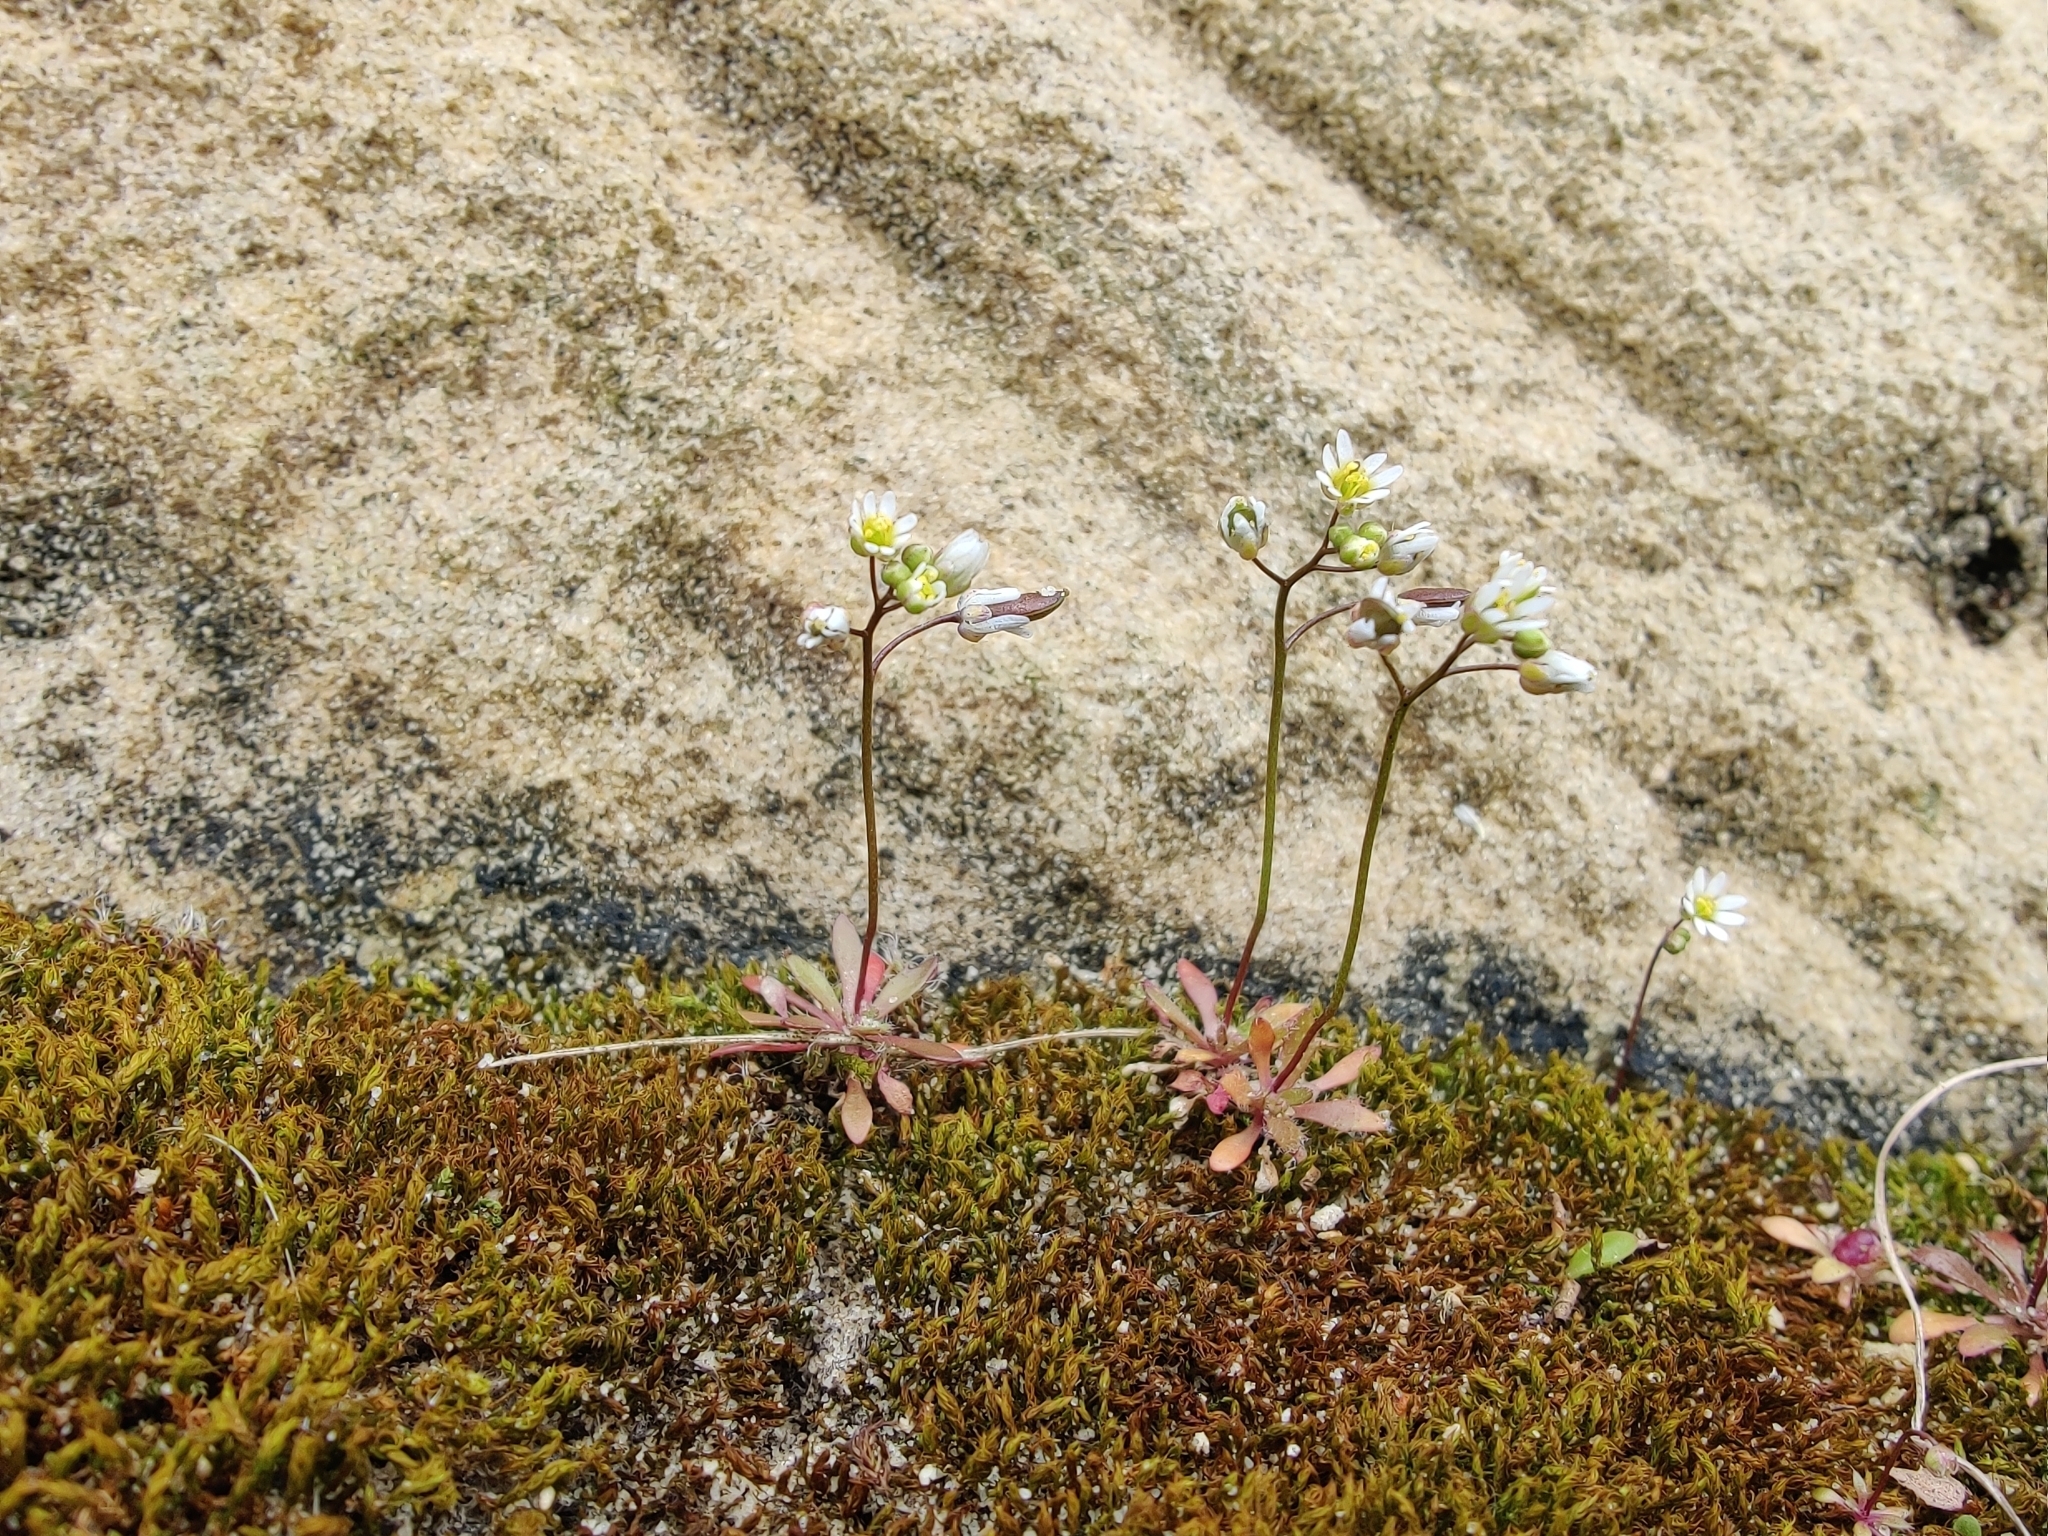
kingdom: Plantae
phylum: Tracheophyta
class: Magnoliopsida
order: Brassicales
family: Brassicaceae
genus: Draba
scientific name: Draba verna
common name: Spring draba
